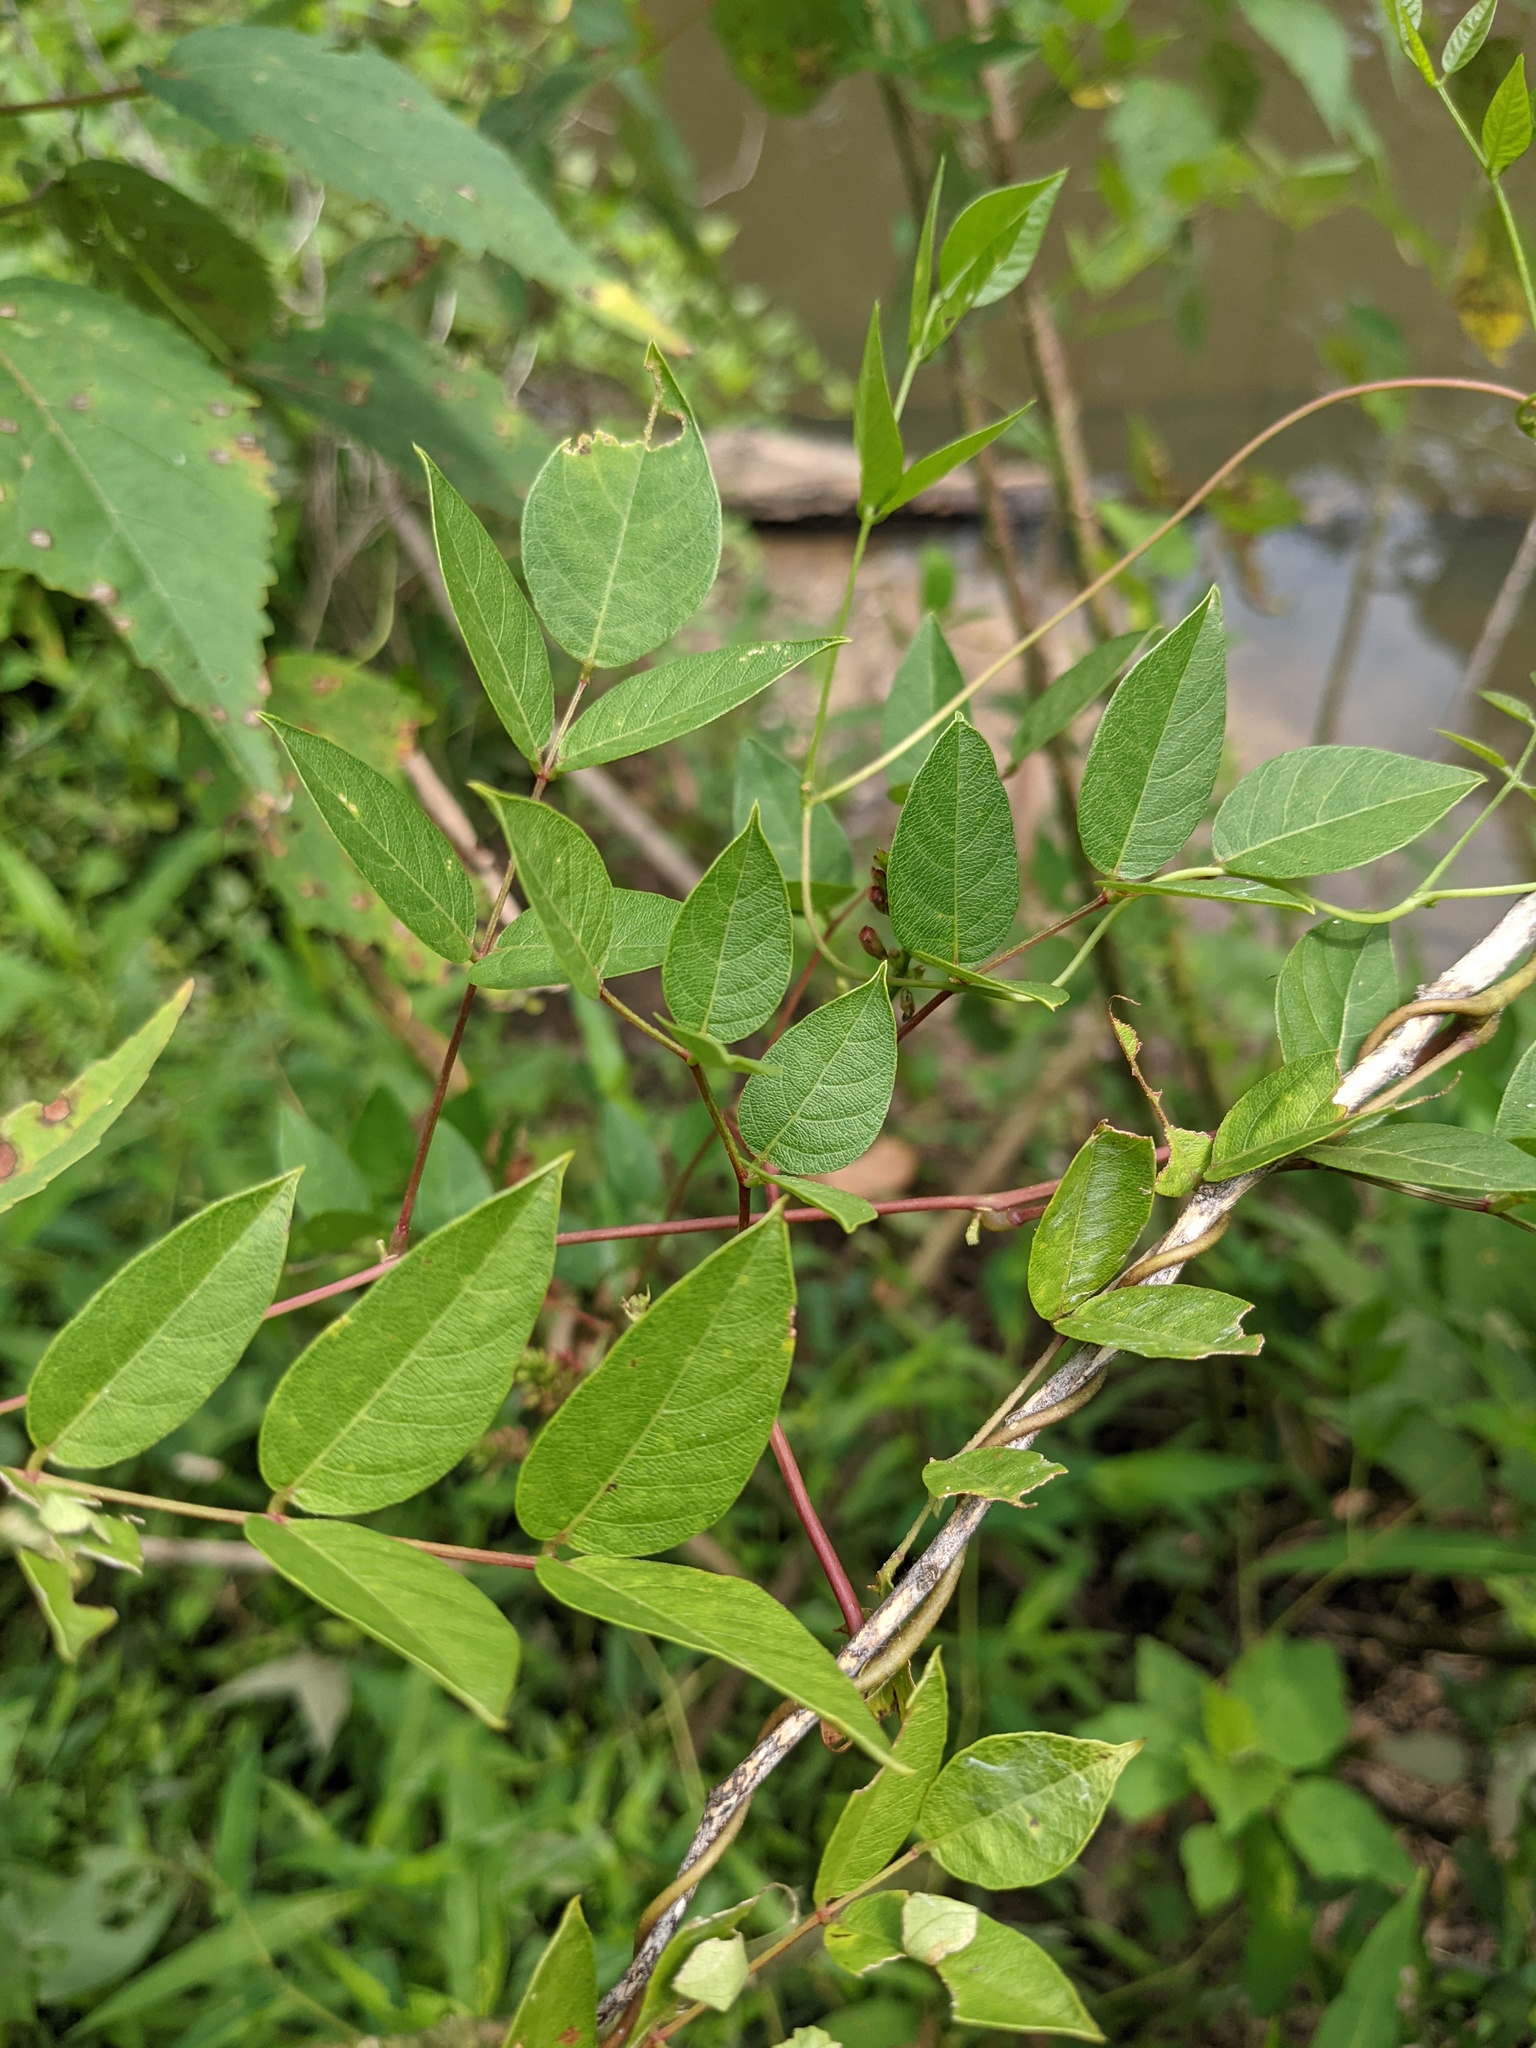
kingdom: Plantae
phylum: Tracheophyta
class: Magnoliopsida
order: Fabales
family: Fabaceae
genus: Apios
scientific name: Apios americana
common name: American potato-bean
